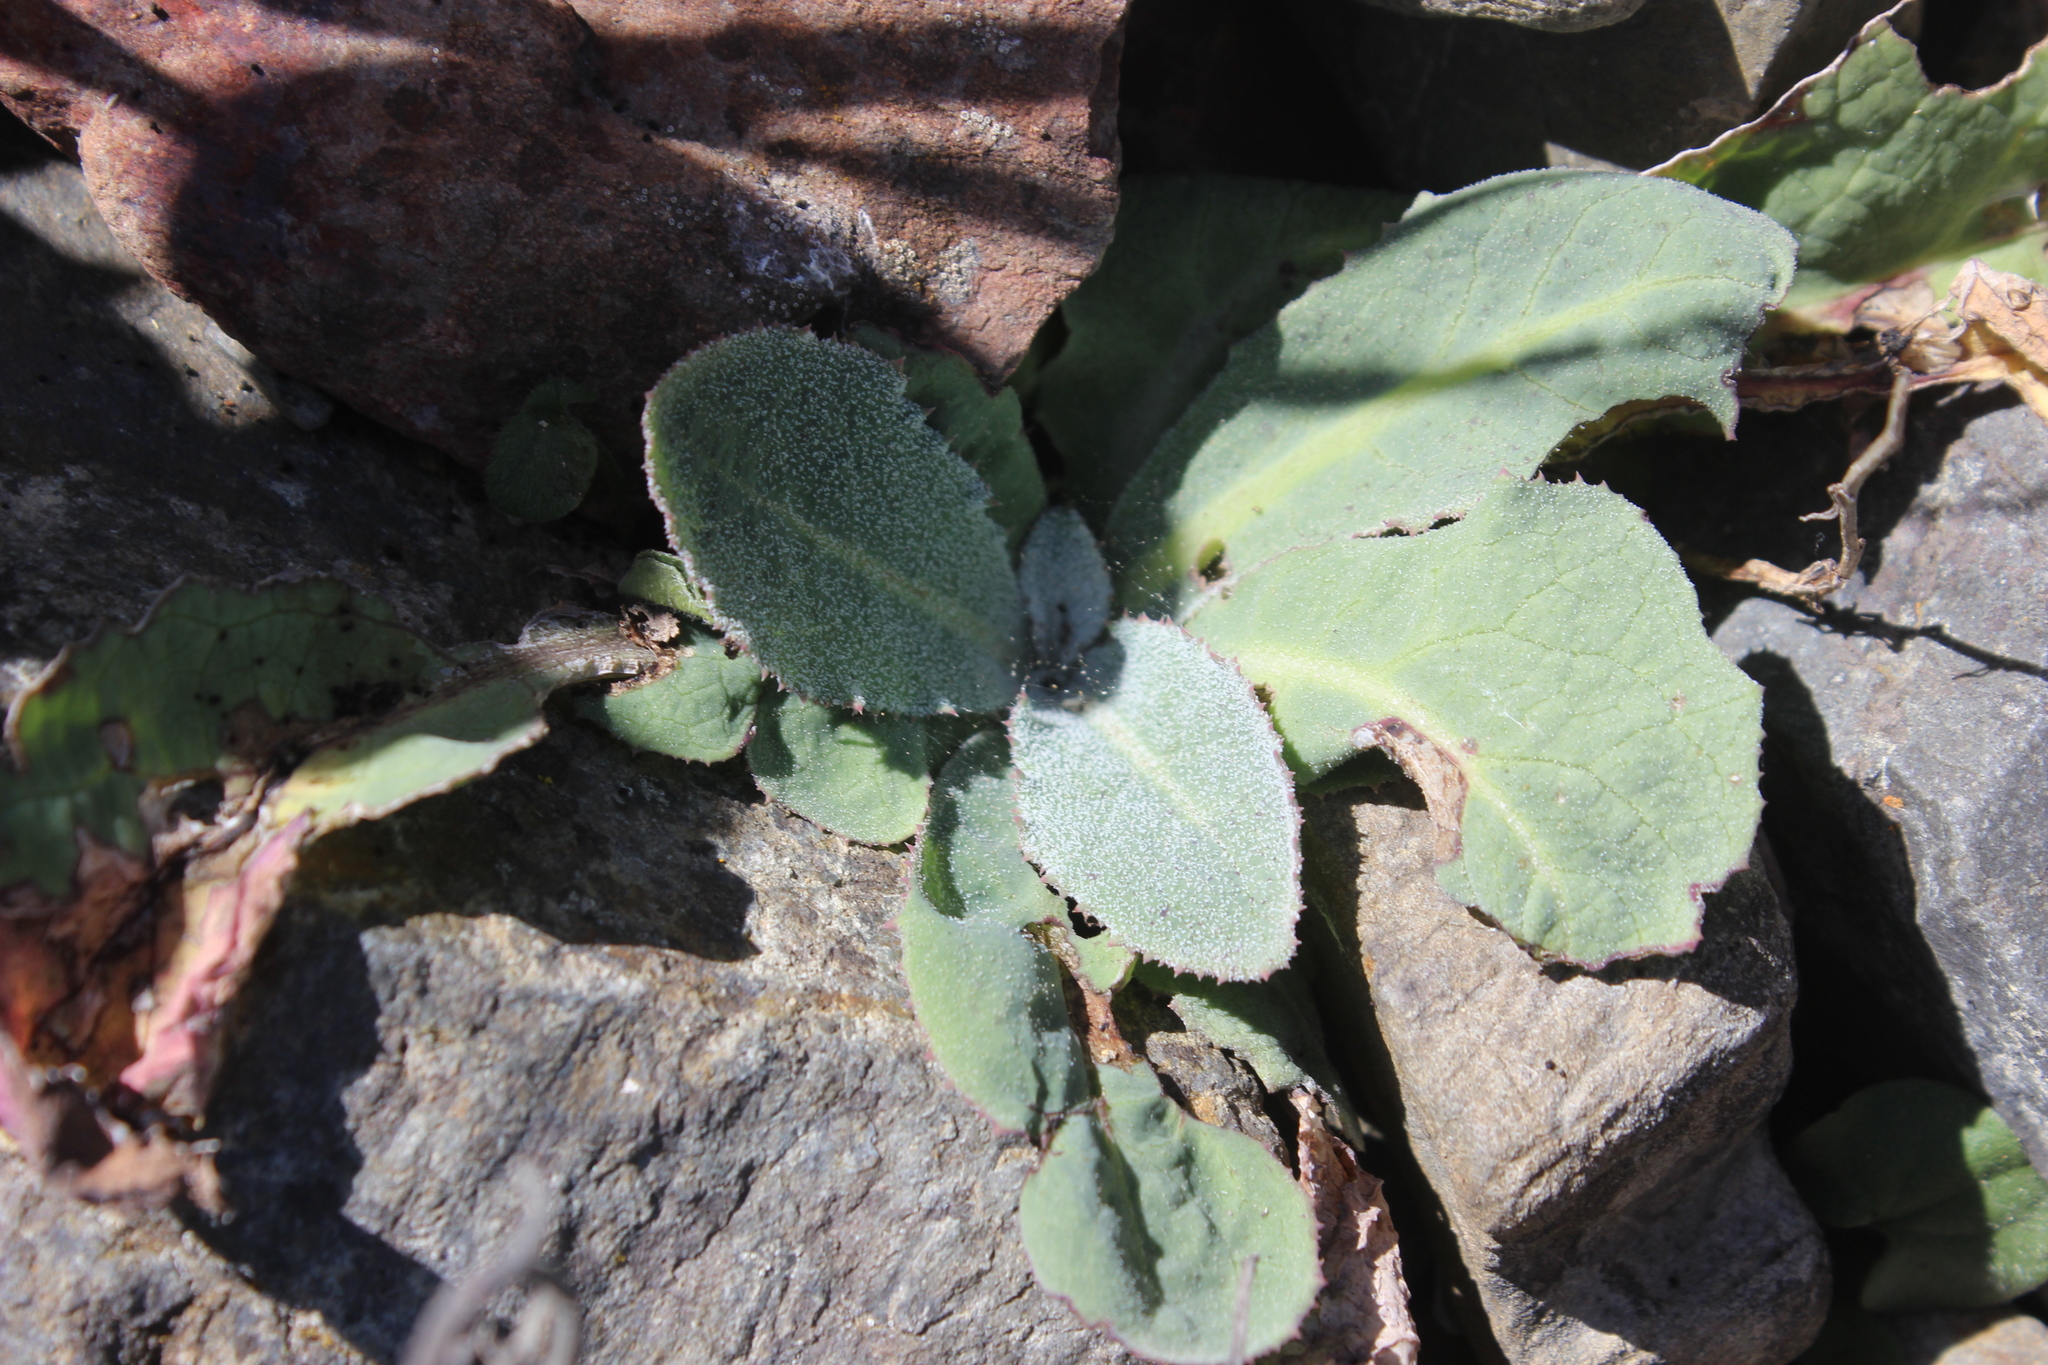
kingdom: Plantae
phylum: Tracheophyta
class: Magnoliopsida
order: Asterales
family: Asteraceae
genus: Sonchus
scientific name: Sonchus kirkii
